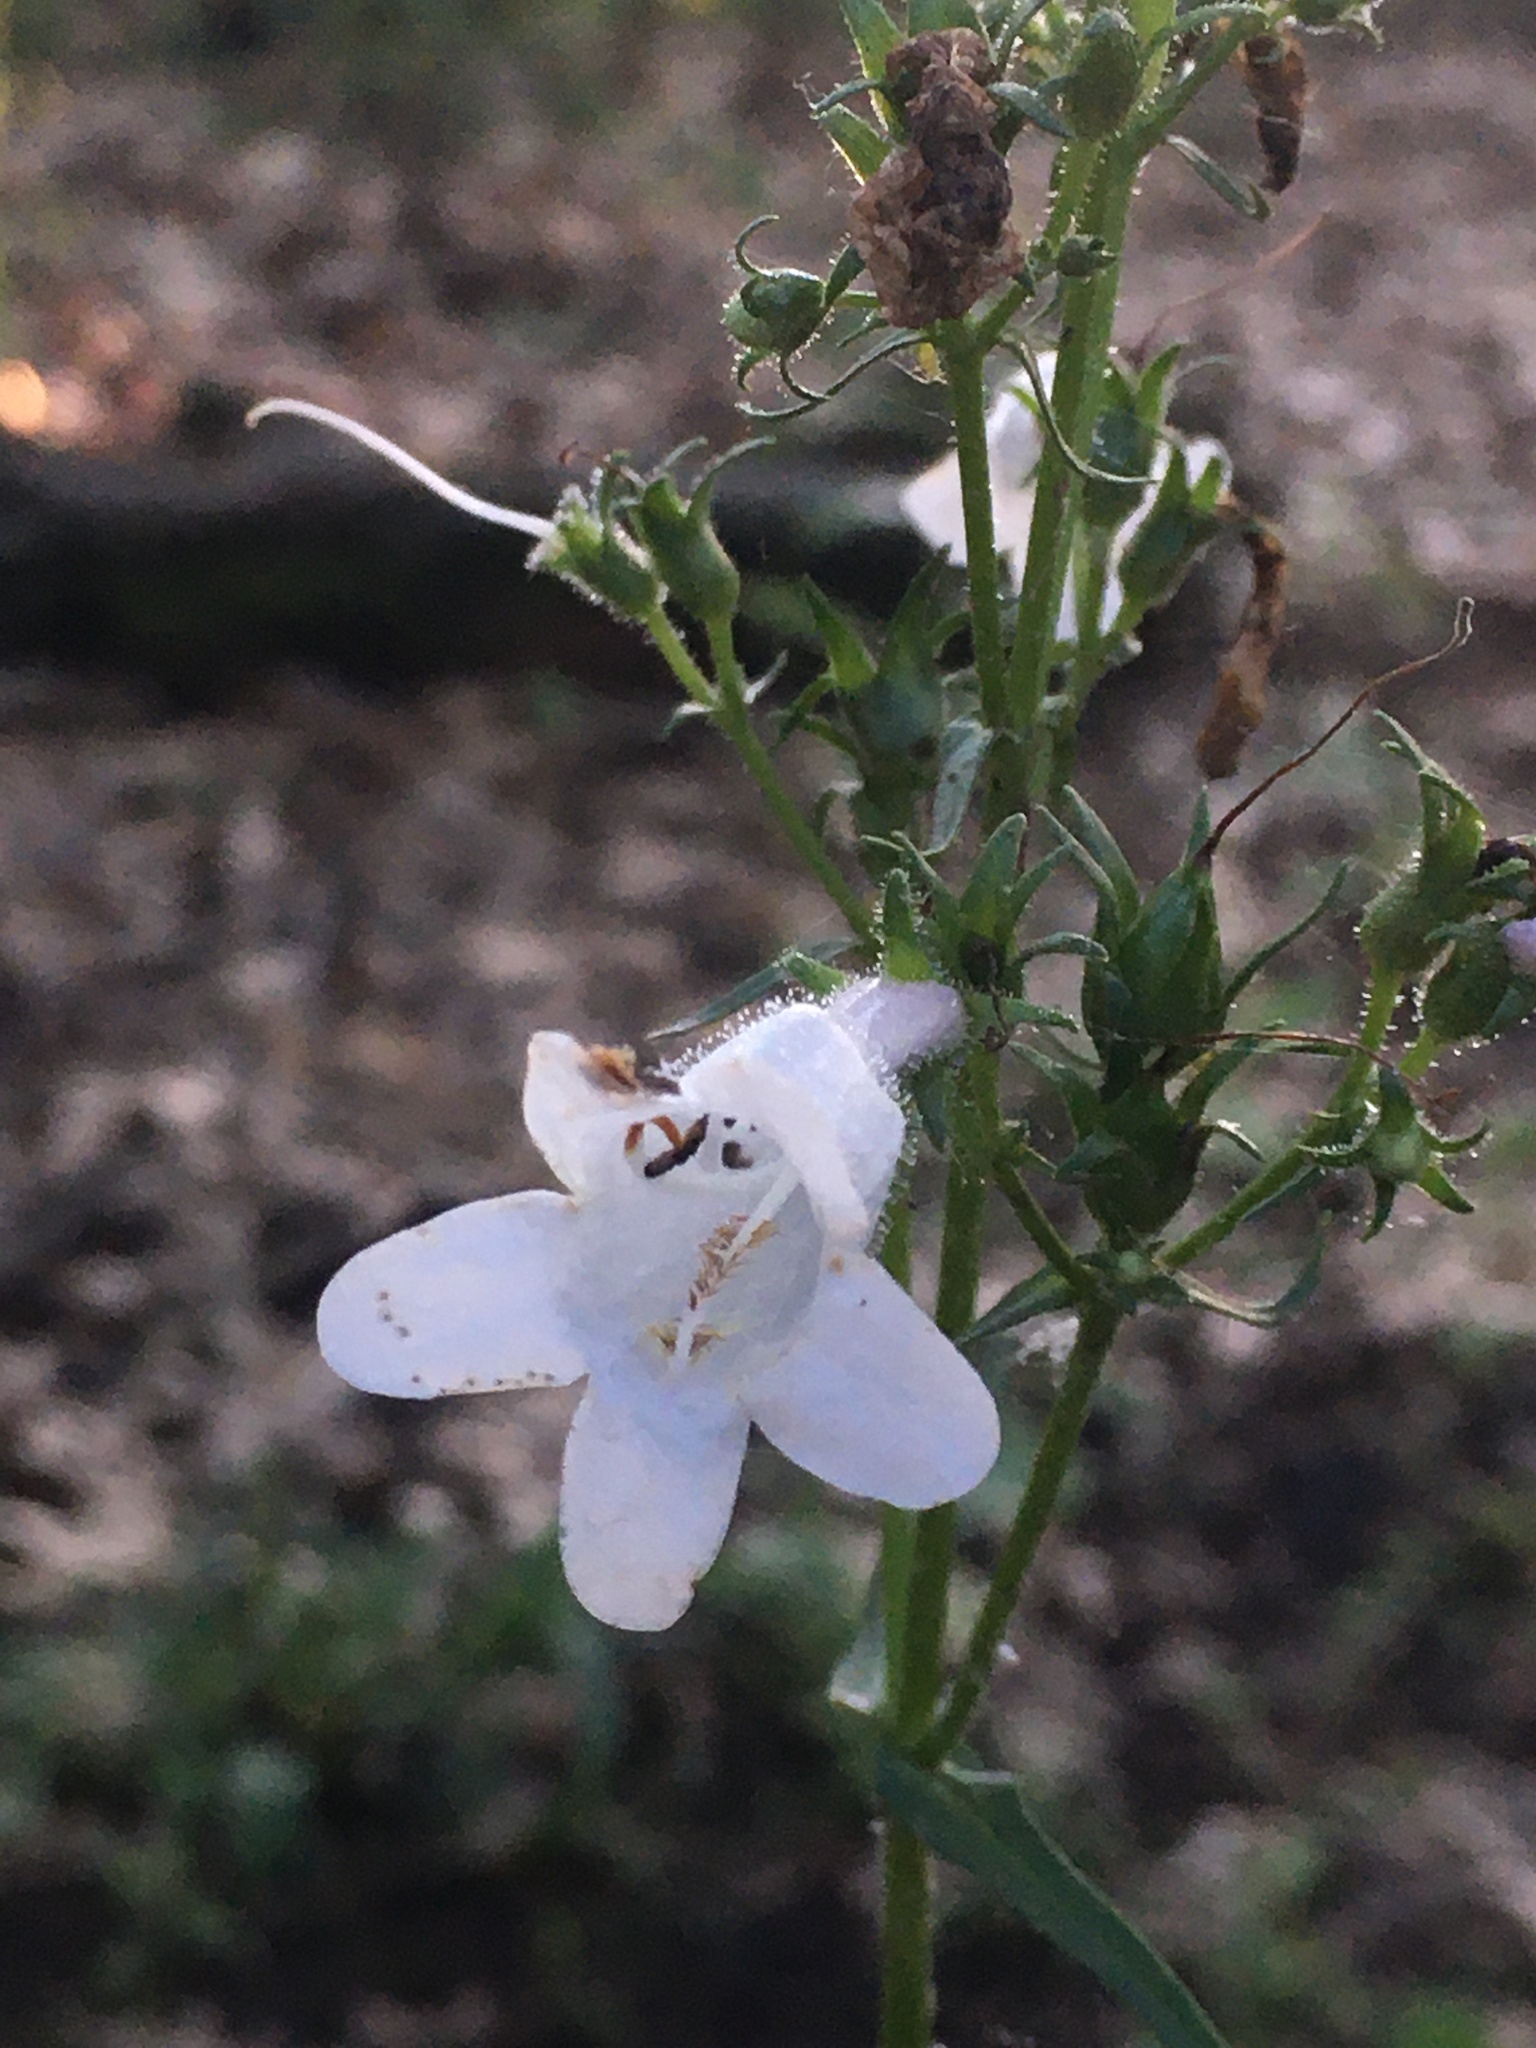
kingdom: Plantae
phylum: Tracheophyta
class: Magnoliopsida
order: Lamiales
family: Plantaginaceae
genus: Penstemon
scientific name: Penstemon digitalis
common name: Foxglove beardtongue
